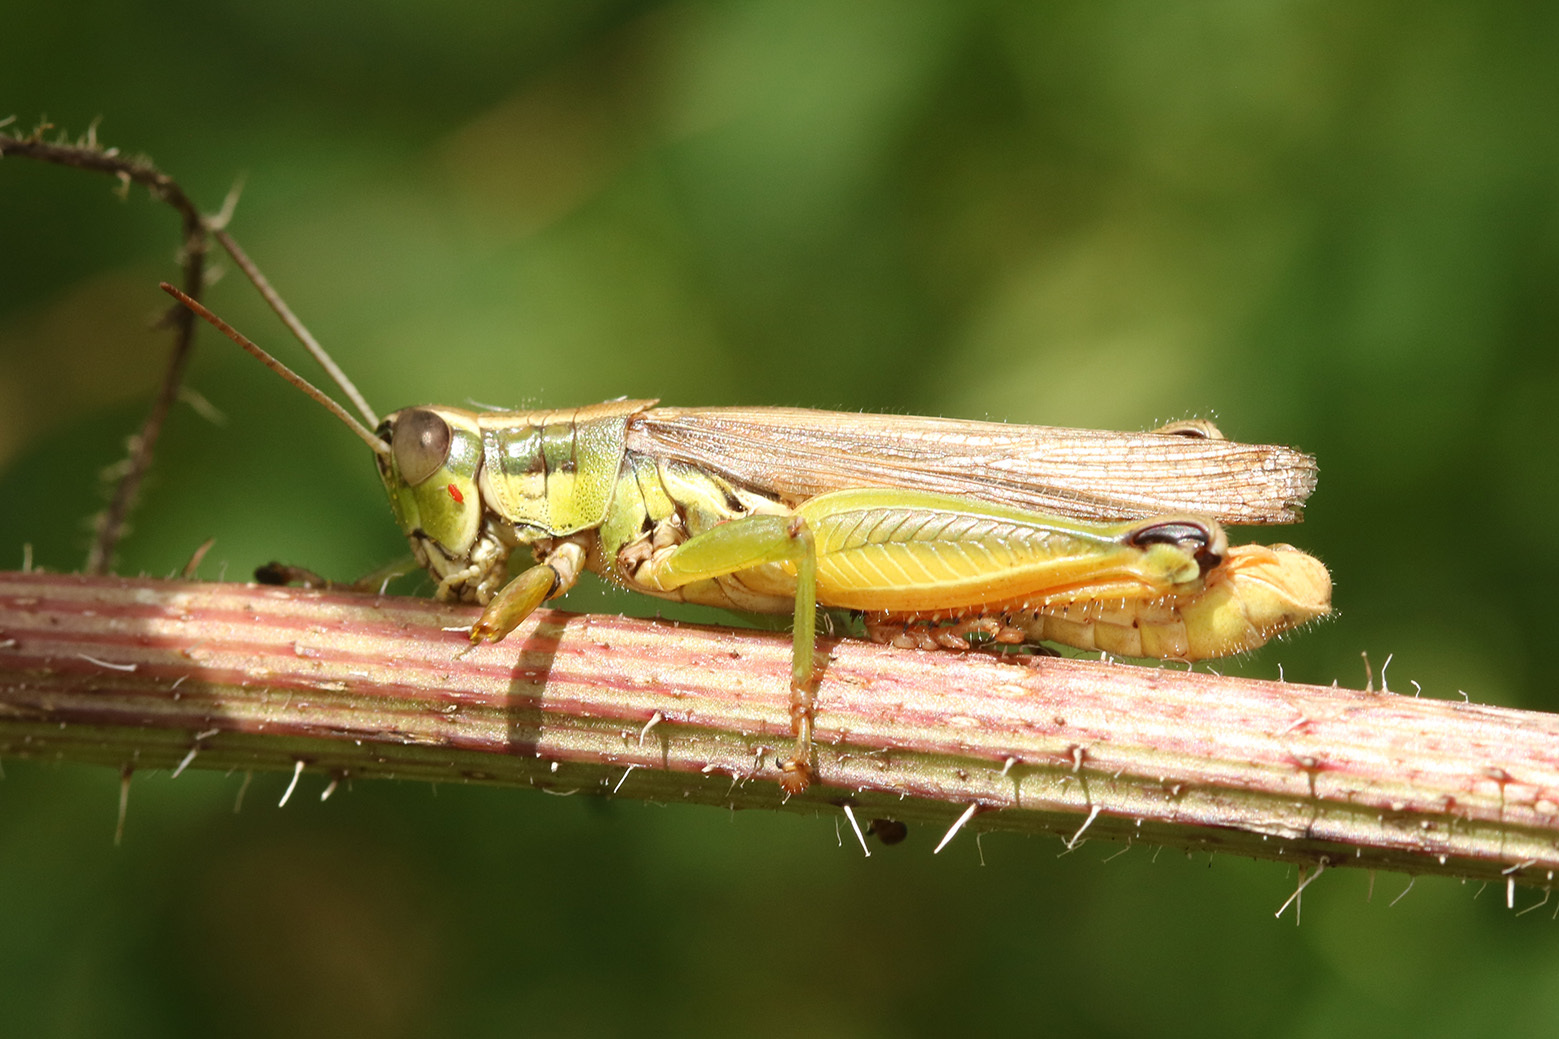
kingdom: Animalia
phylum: Arthropoda
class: Insecta
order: Orthoptera
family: Acrididae
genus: Scotussa
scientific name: Scotussa cliens
